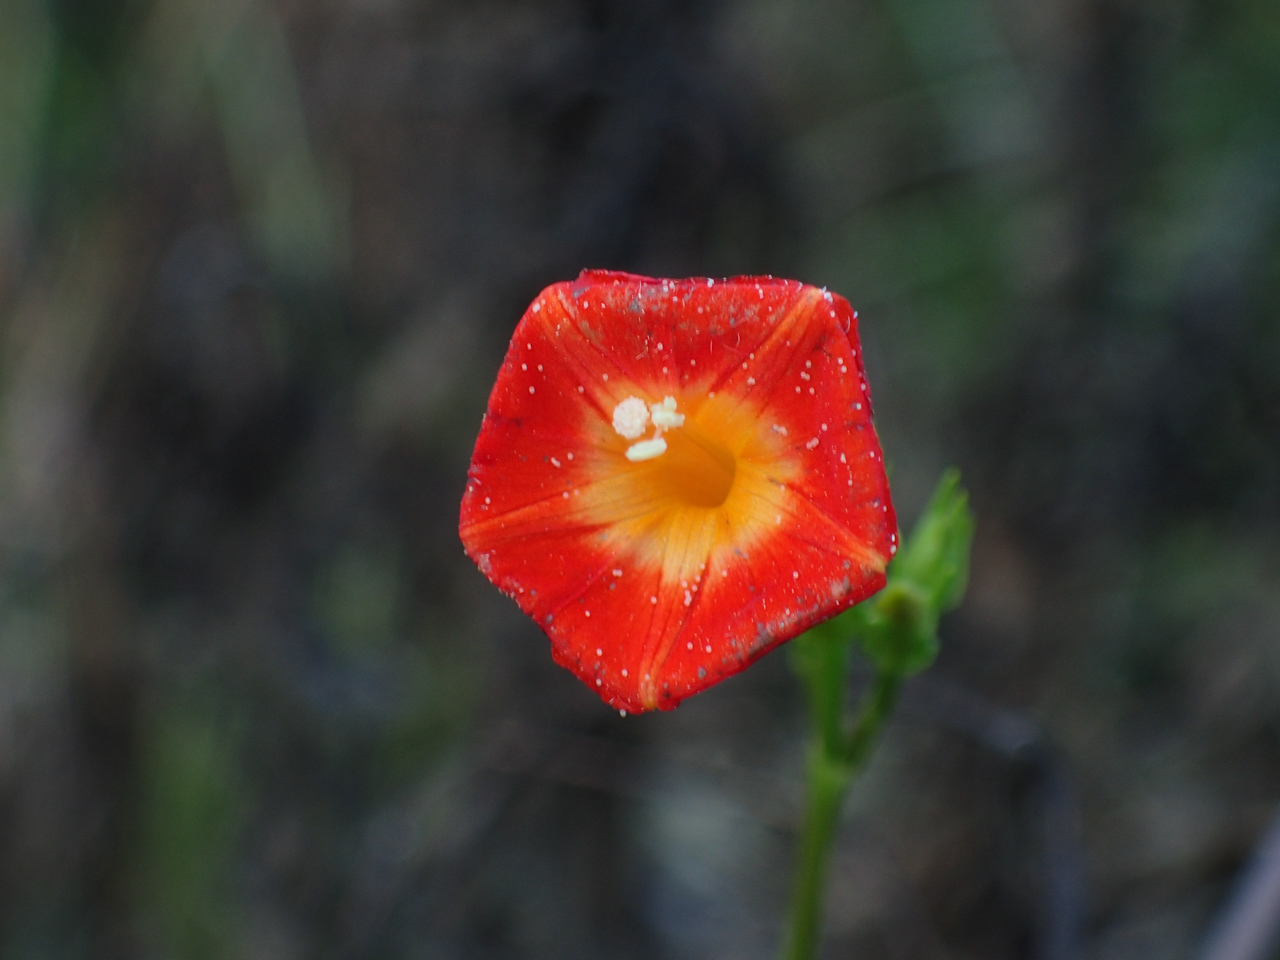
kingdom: Plantae
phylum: Tracheophyta
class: Magnoliopsida
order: Solanales
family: Convolvulaceae
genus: Ipomoea
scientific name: Ipomoea coccinea
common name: Red morning-glory
